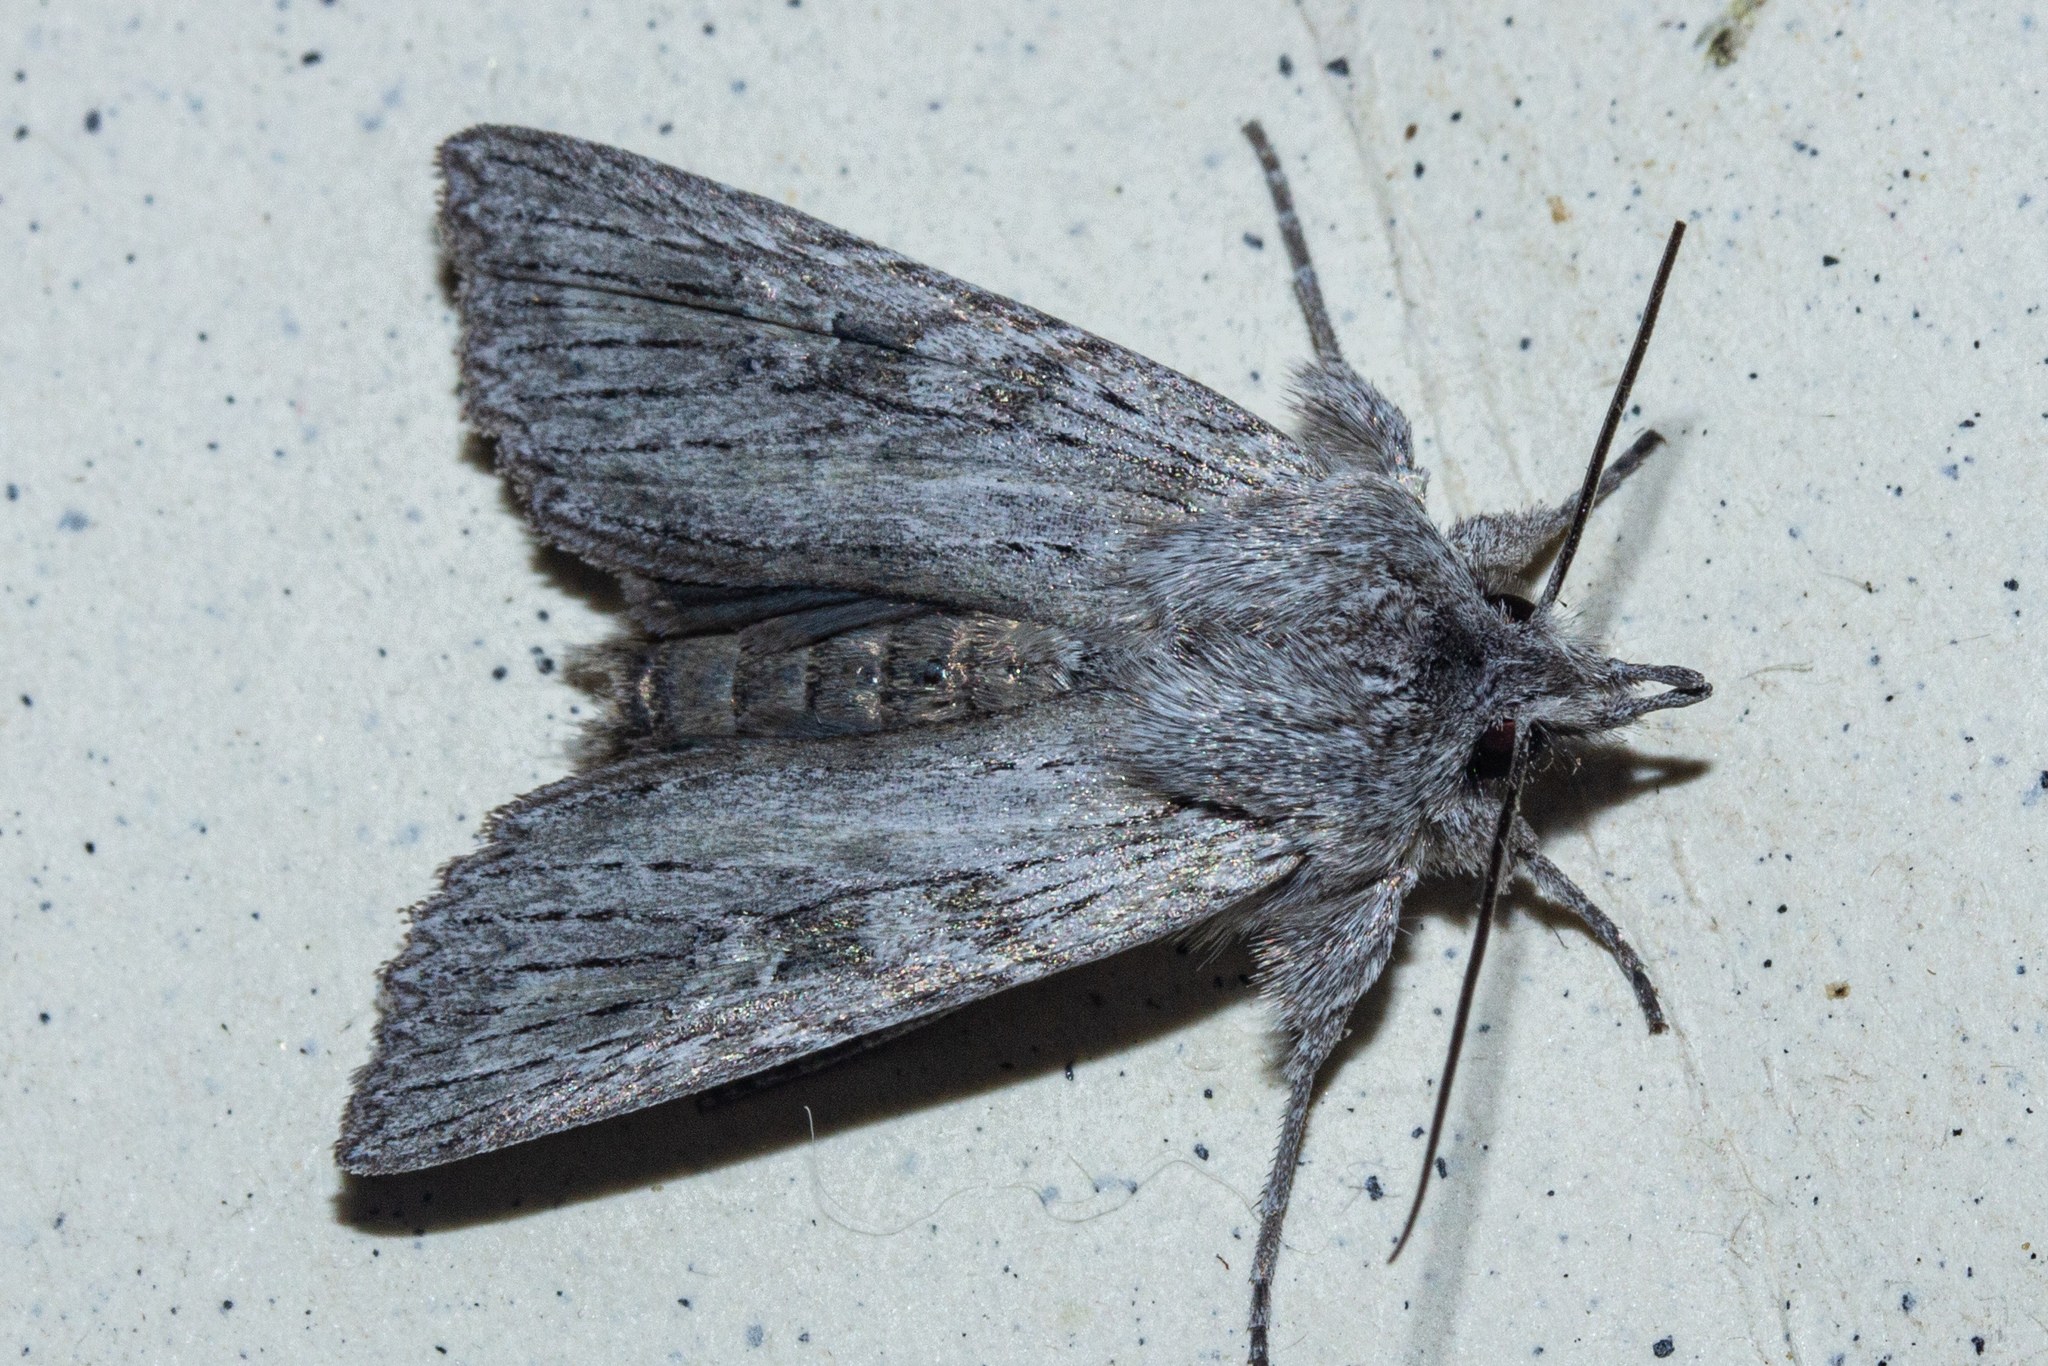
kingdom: Animalia
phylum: Arthropoda
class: Insecta
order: Lepidoptera
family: Noctuidae
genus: Physetica
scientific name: Physetica phricias
